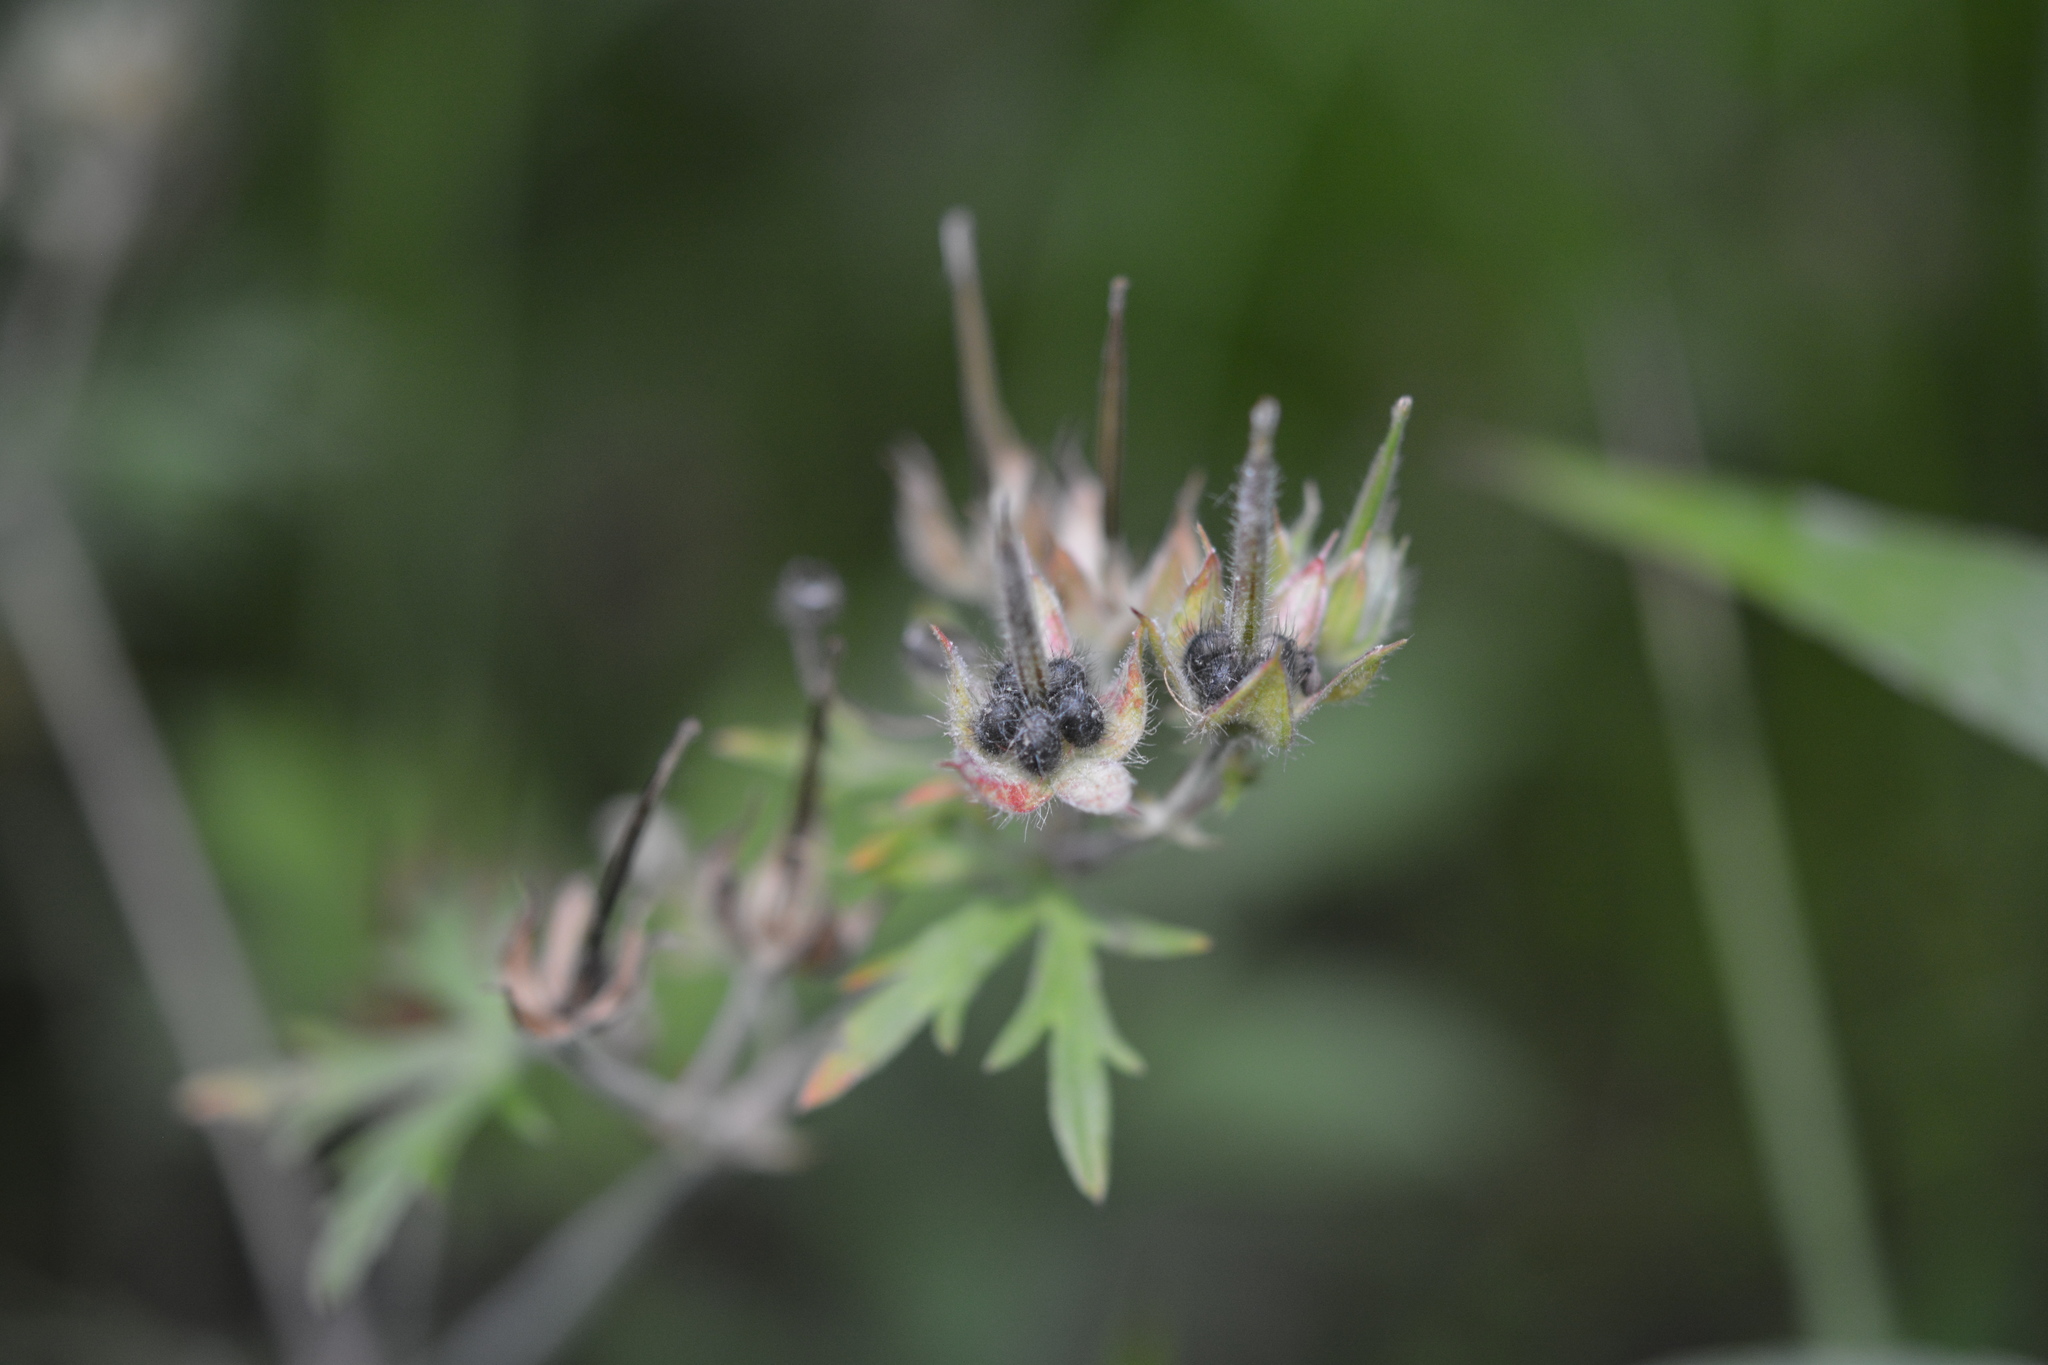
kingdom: Plantae
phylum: Tracheophyta
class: Magnoliopsida
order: Geraniales
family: Geraniaceae
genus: Geranium
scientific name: Geranium carolinianum
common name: Carolina crane's-bill
